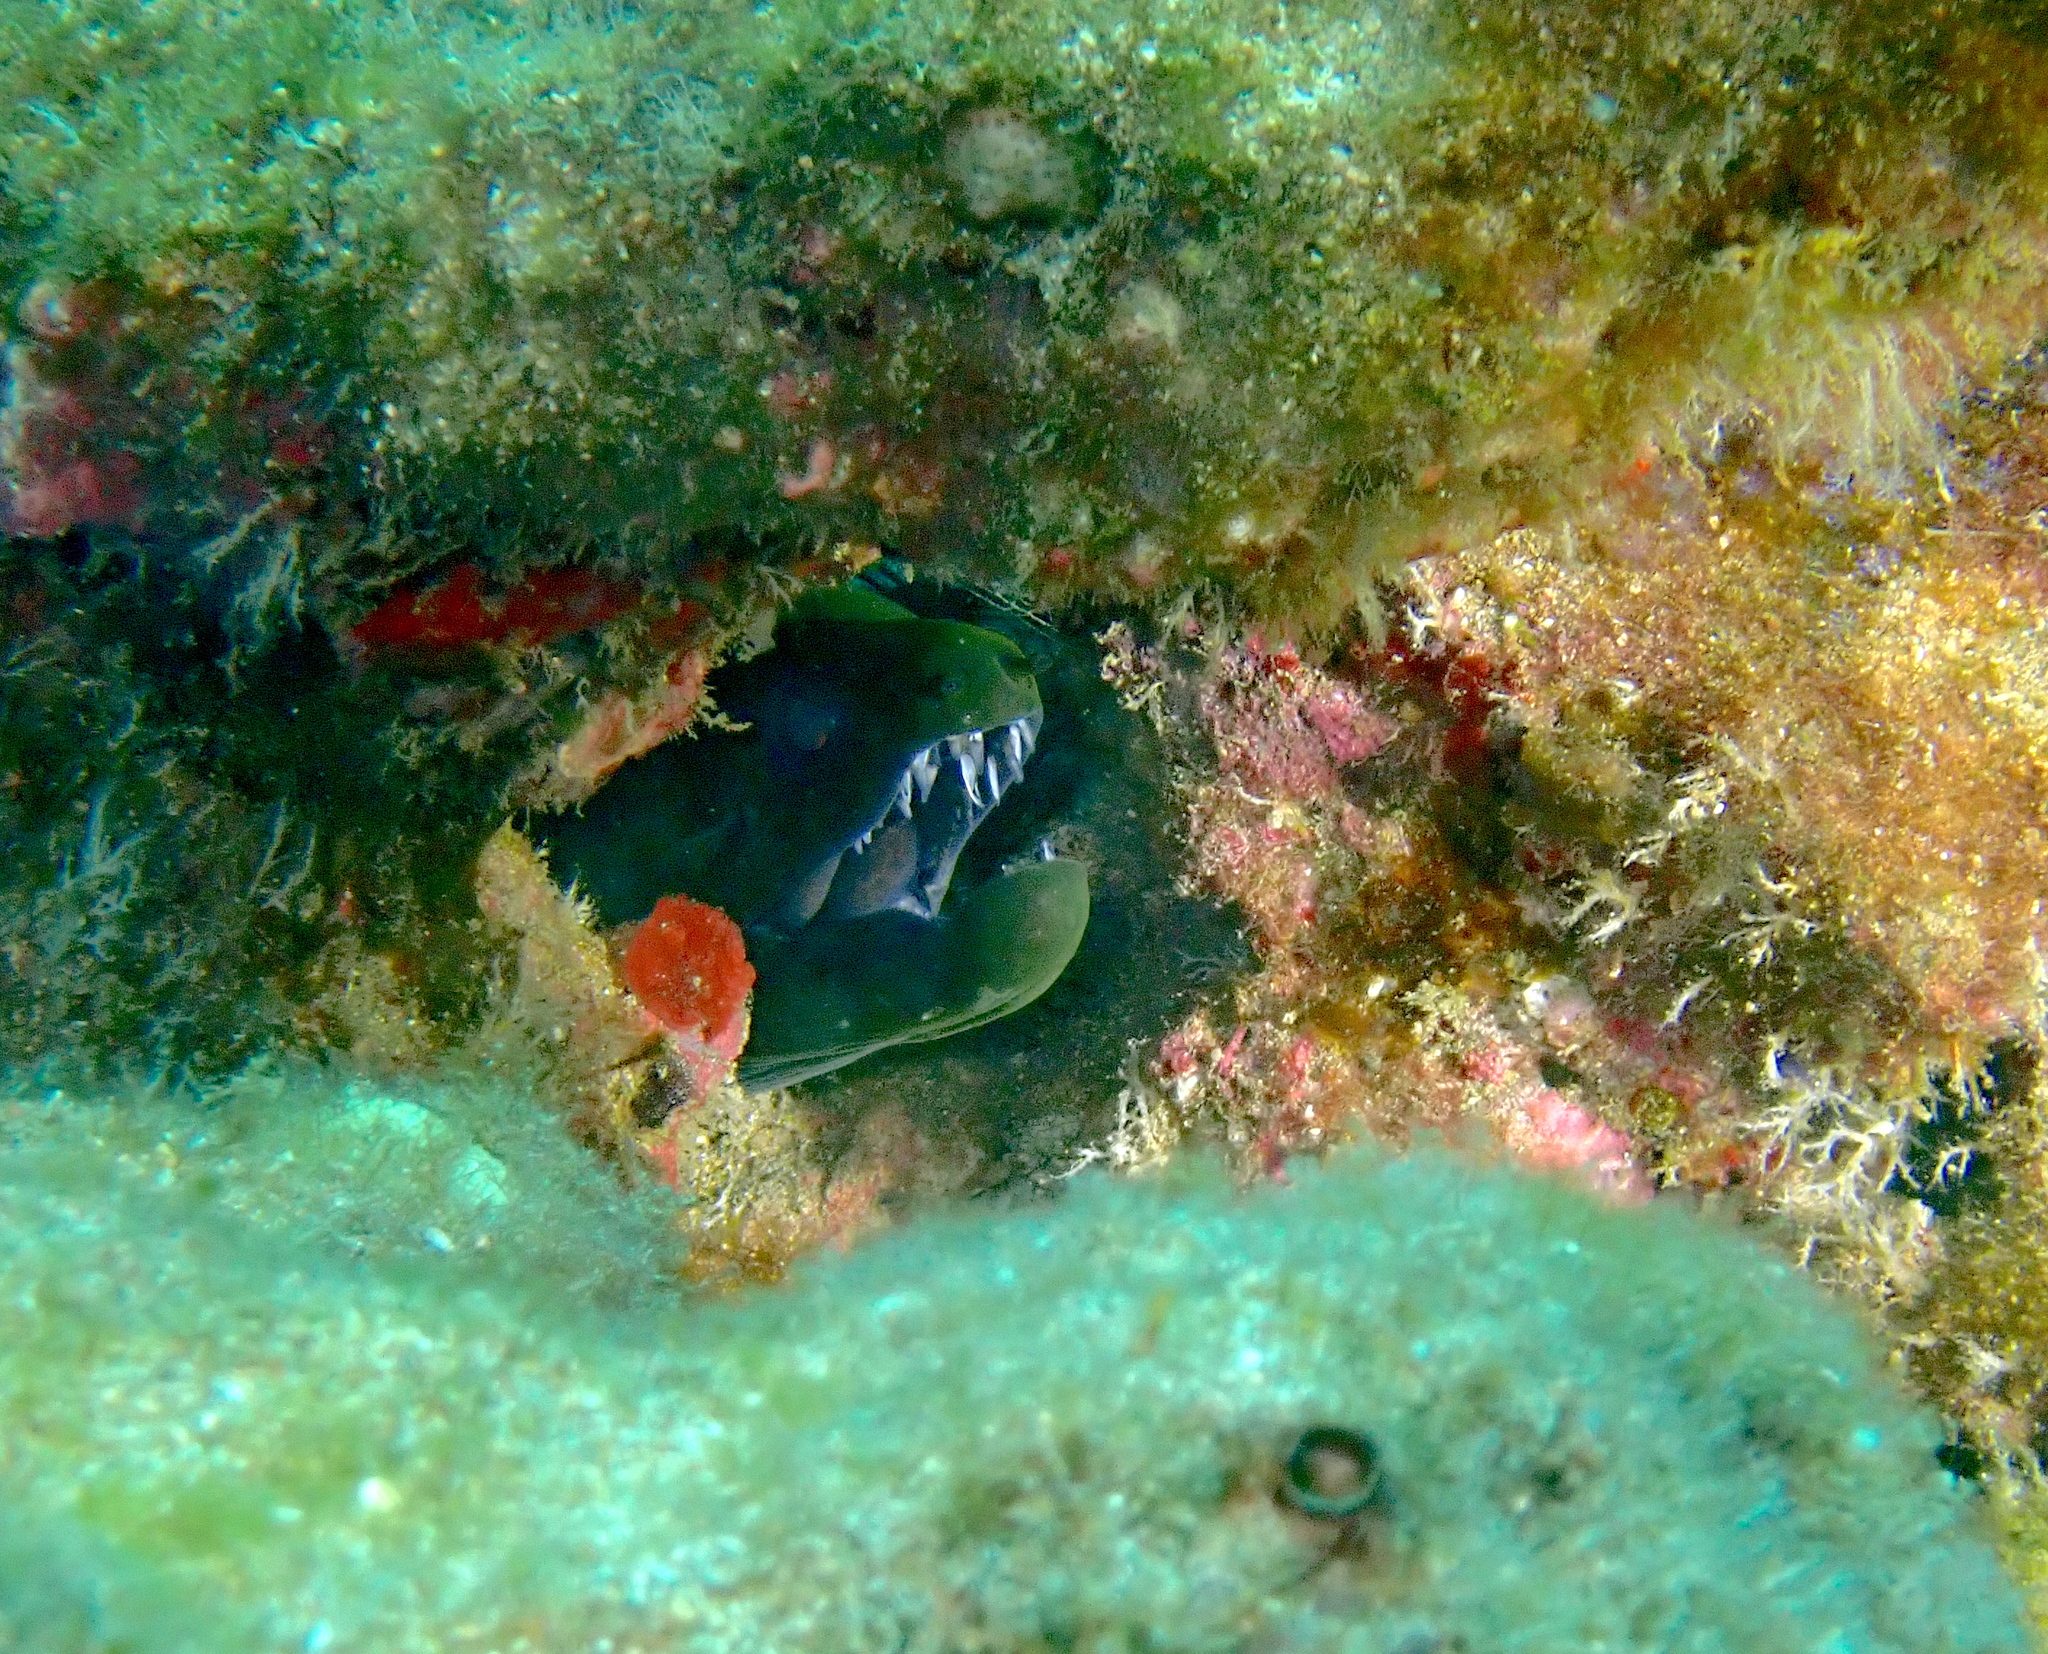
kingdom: Animalia
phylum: Chordata
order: Anguilliformes
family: Muraenidae
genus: Gymnothorax
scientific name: Gymnothorax undulatus
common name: Leopard moray
